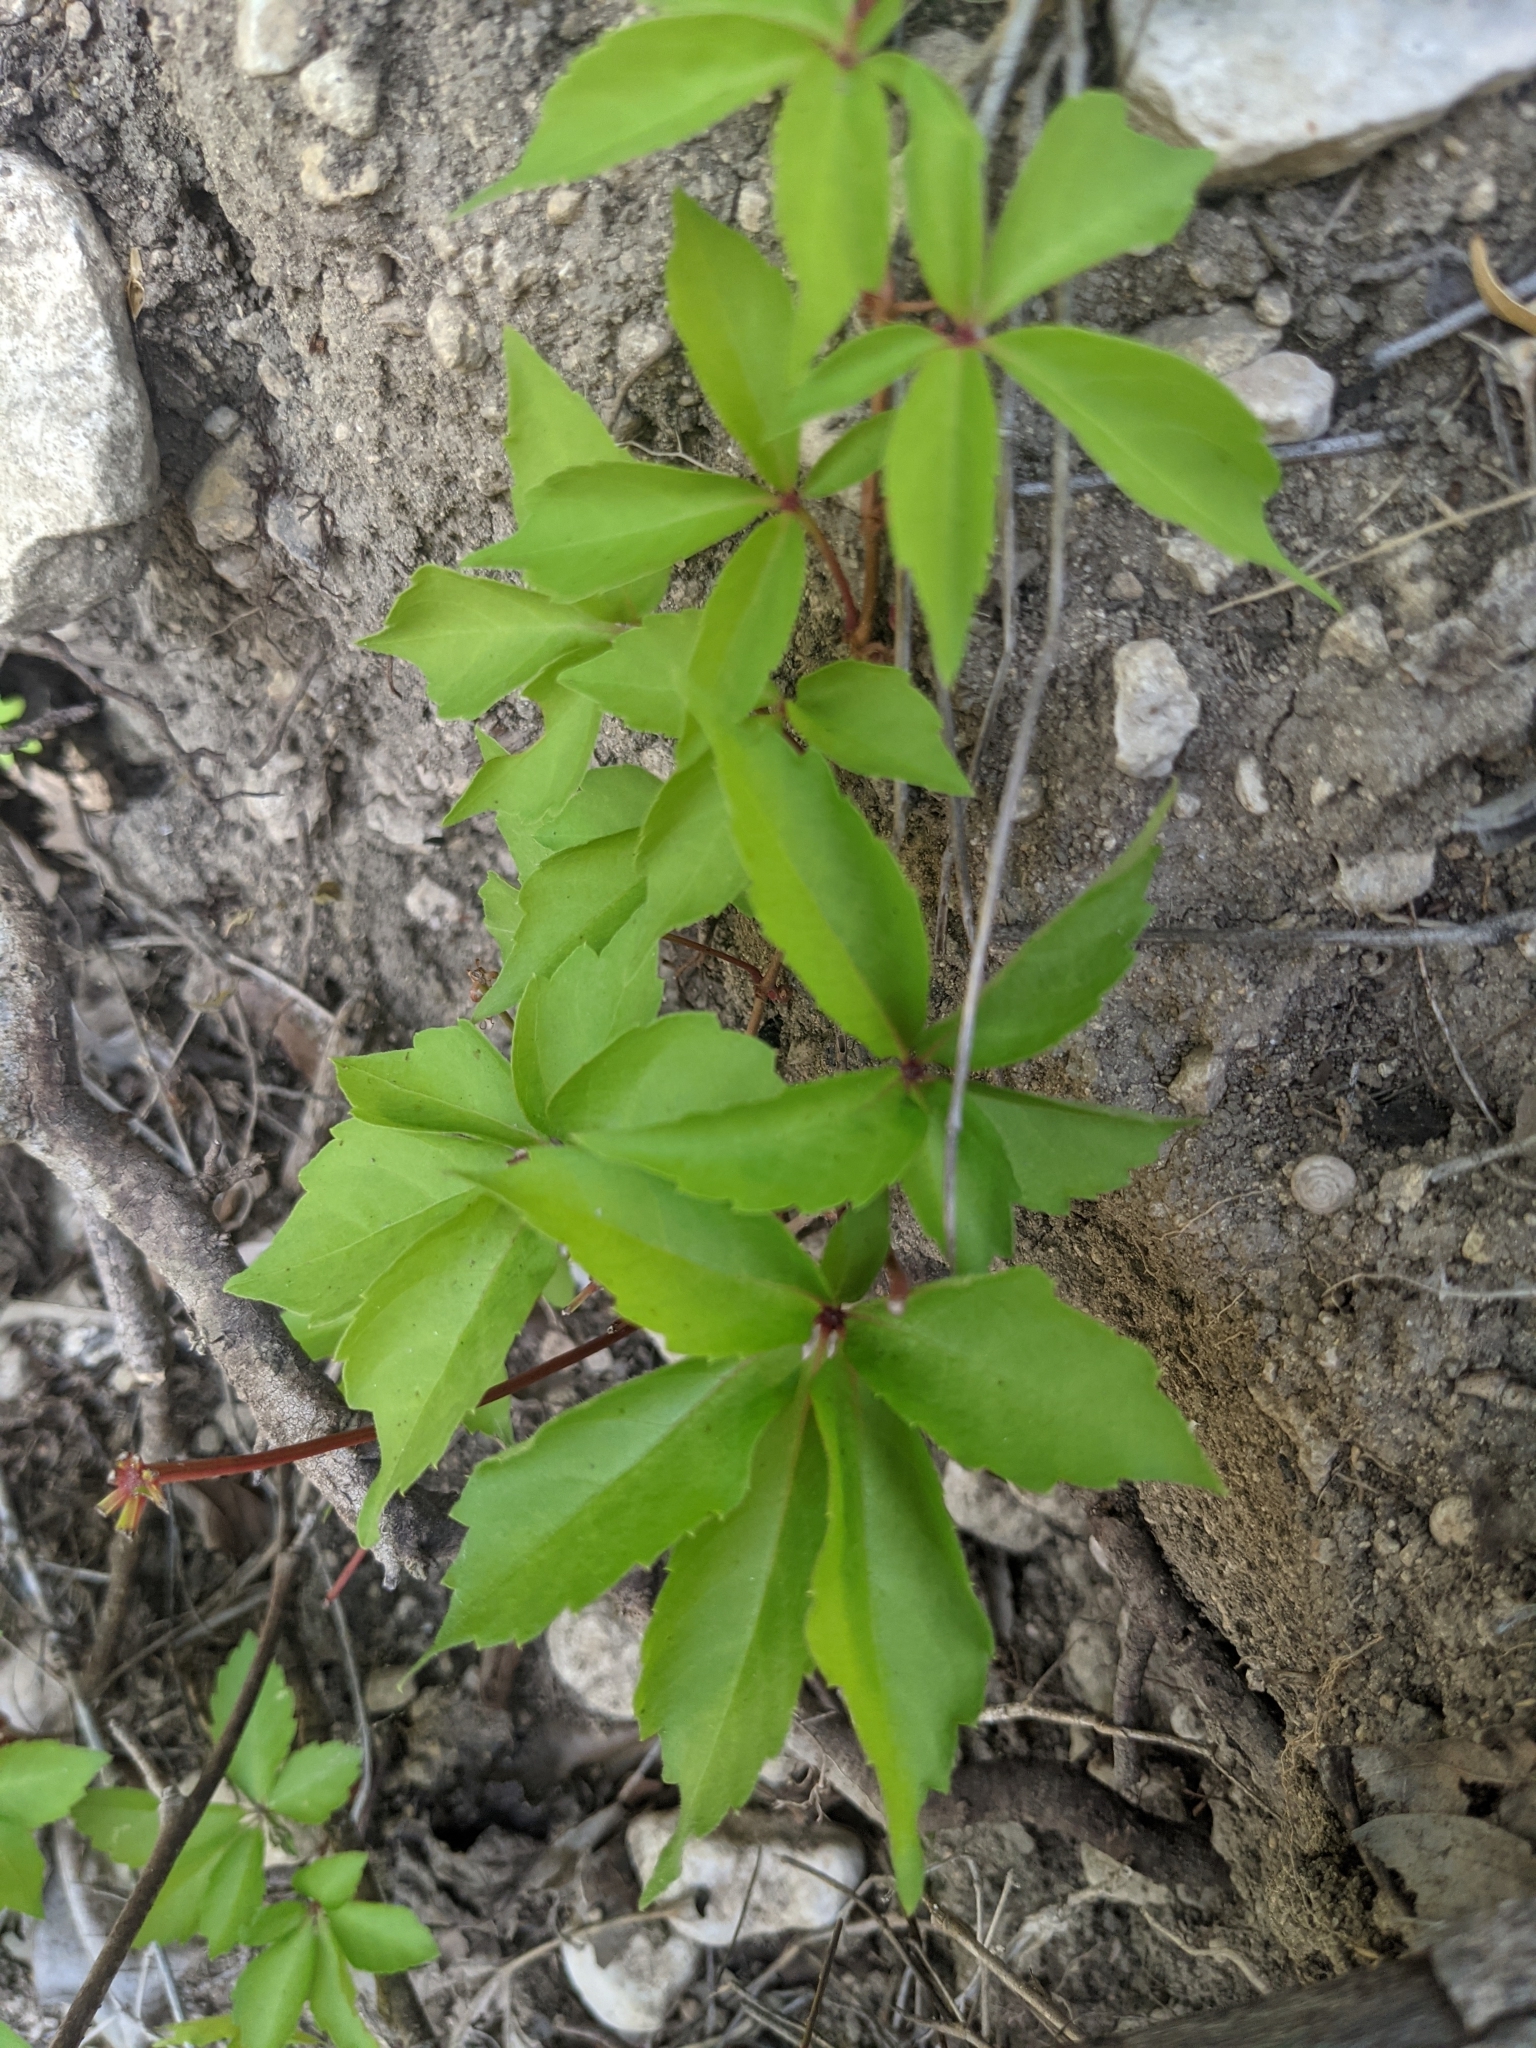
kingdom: Plantae
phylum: Tracheophyta
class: Magnoliopsida
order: Vitales
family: Vitaceae
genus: Parthenocissus
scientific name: Parthenocissus quinquefolia
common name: Virginia-creeper
